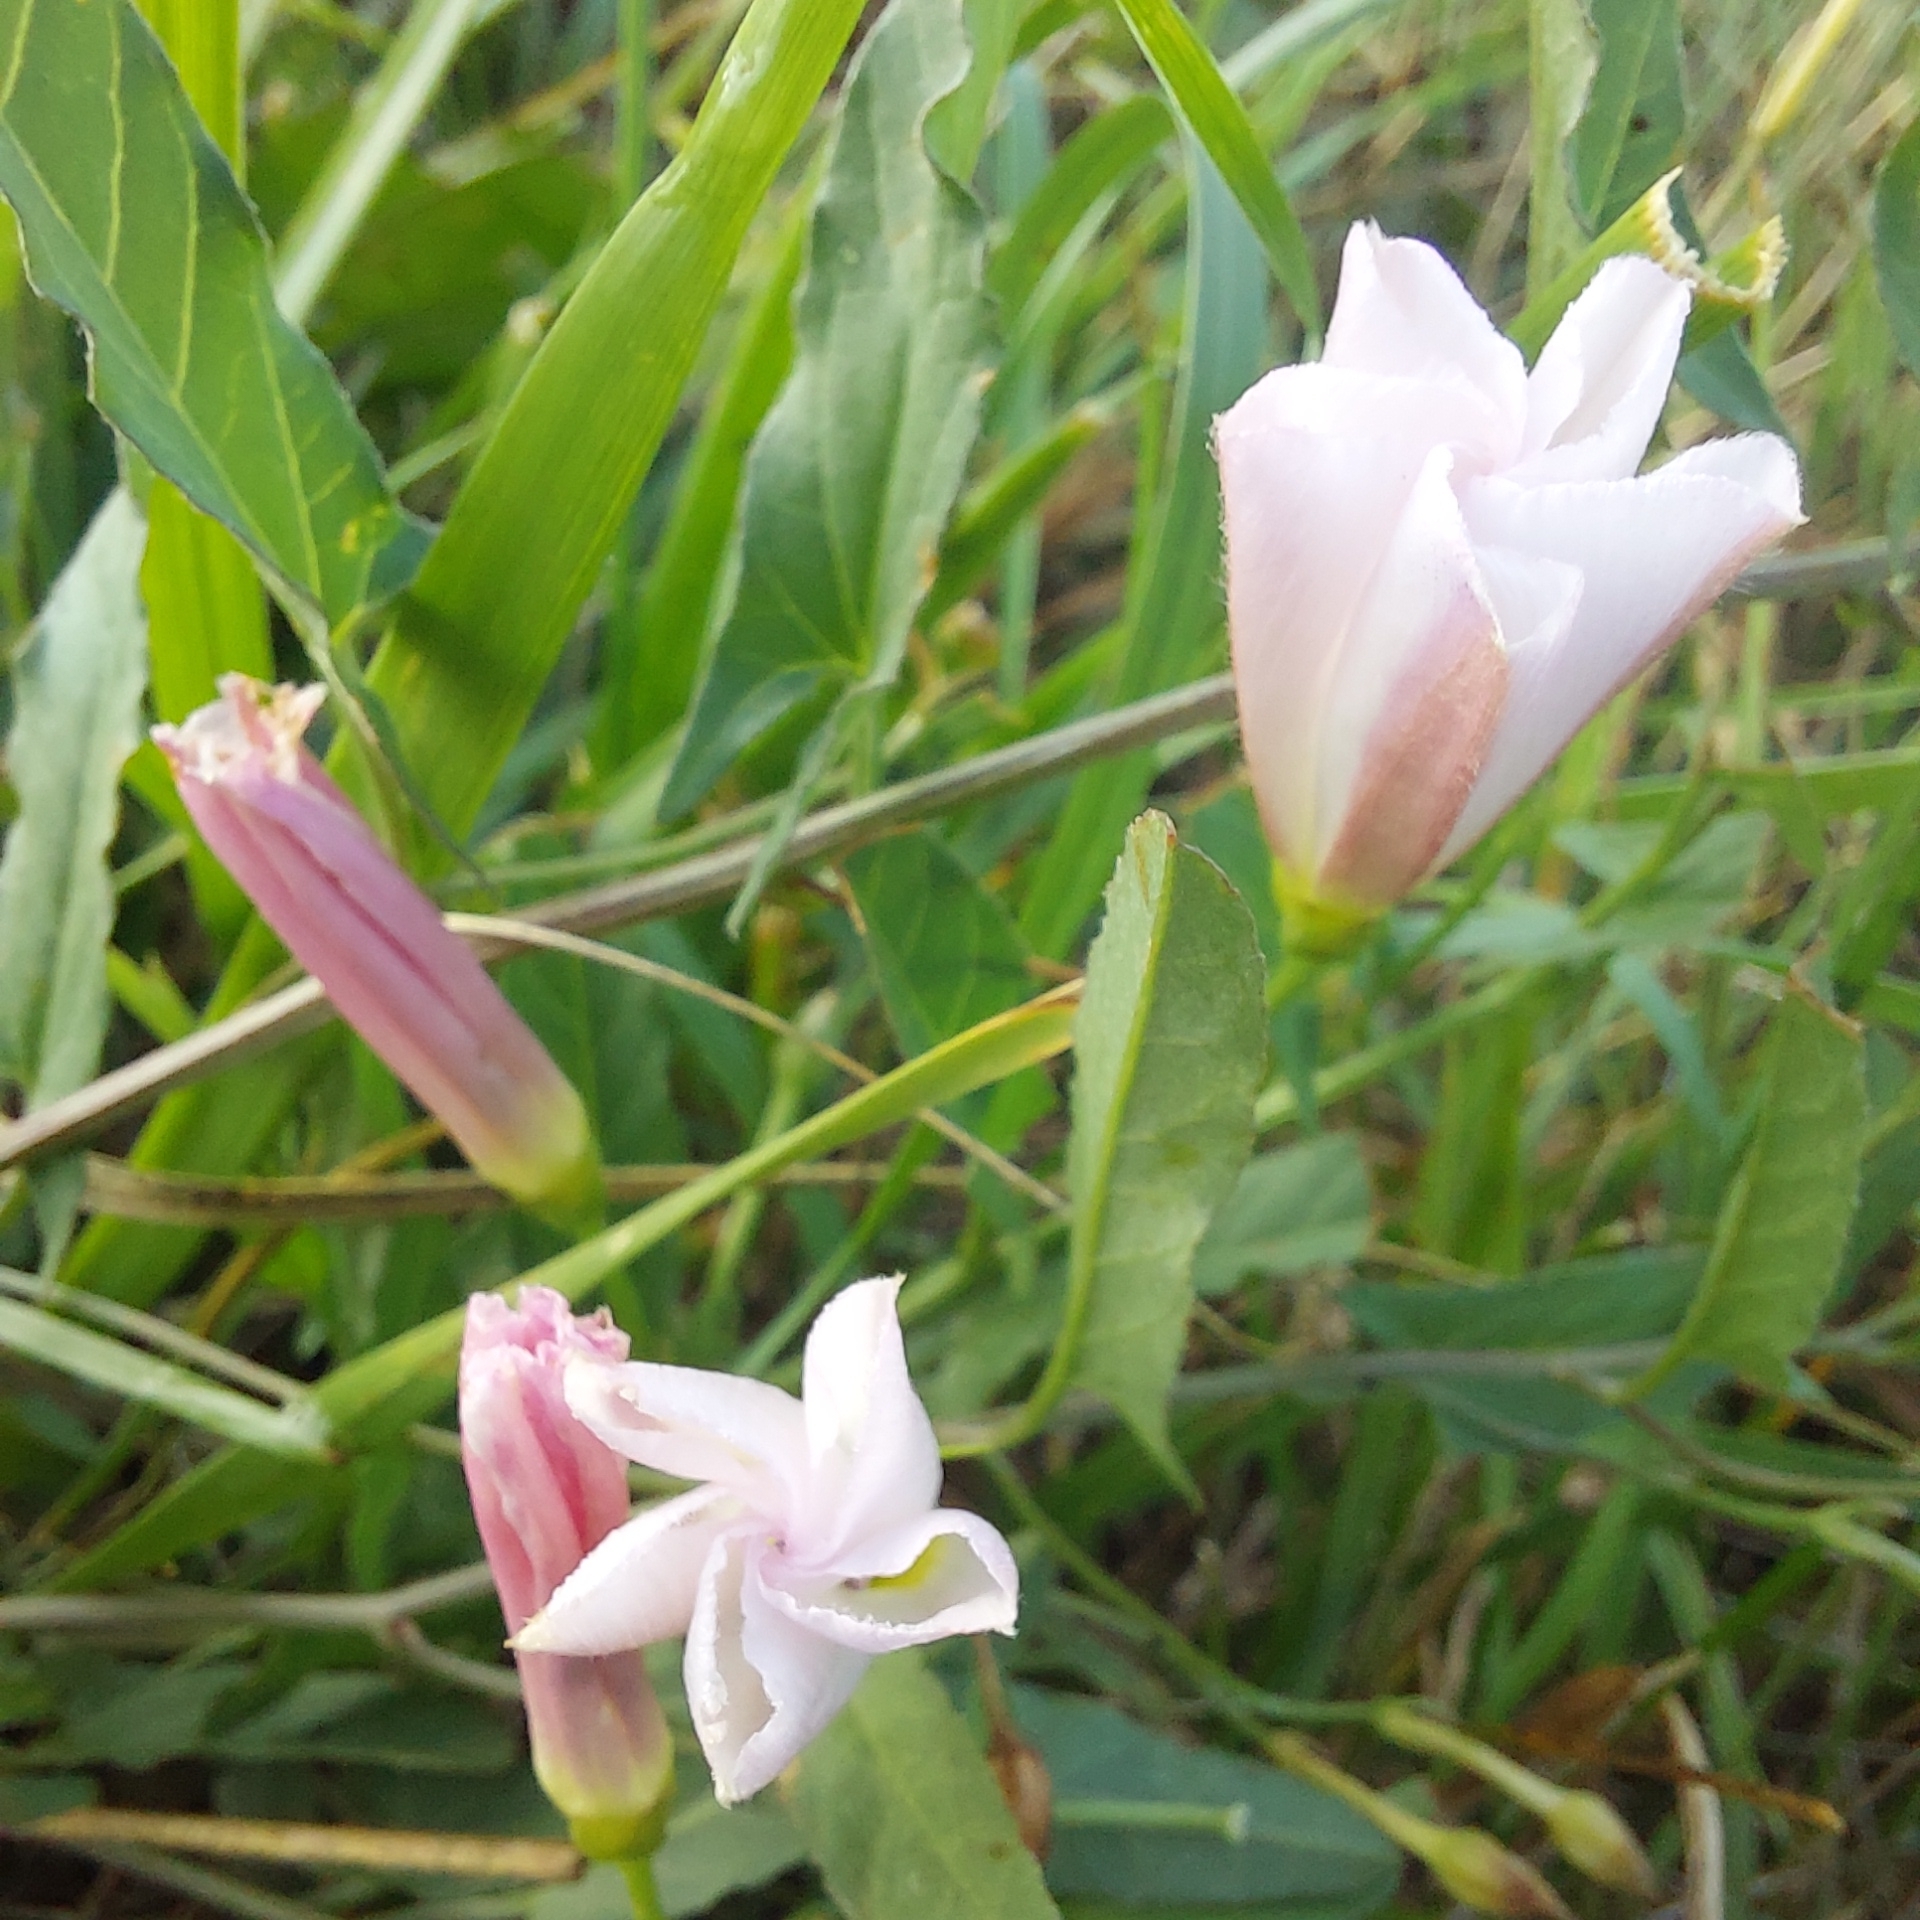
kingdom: Plantae
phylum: Tracheophyta
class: Magnoliopsida
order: Solanales
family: Convolvulaceae
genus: Convolvulus
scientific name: Convolvulus arvensis
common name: Field bindweed
